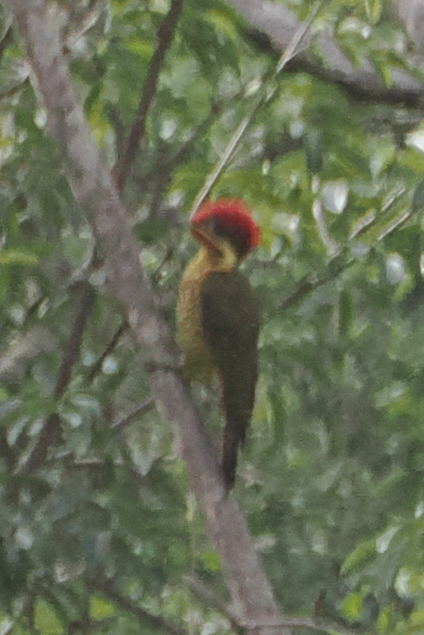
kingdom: Animalia
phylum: Chordata
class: Aves
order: Piciformes
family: Picidae
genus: Piculus
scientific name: Piculus chrysochloros
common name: Golden-green woodpecker
